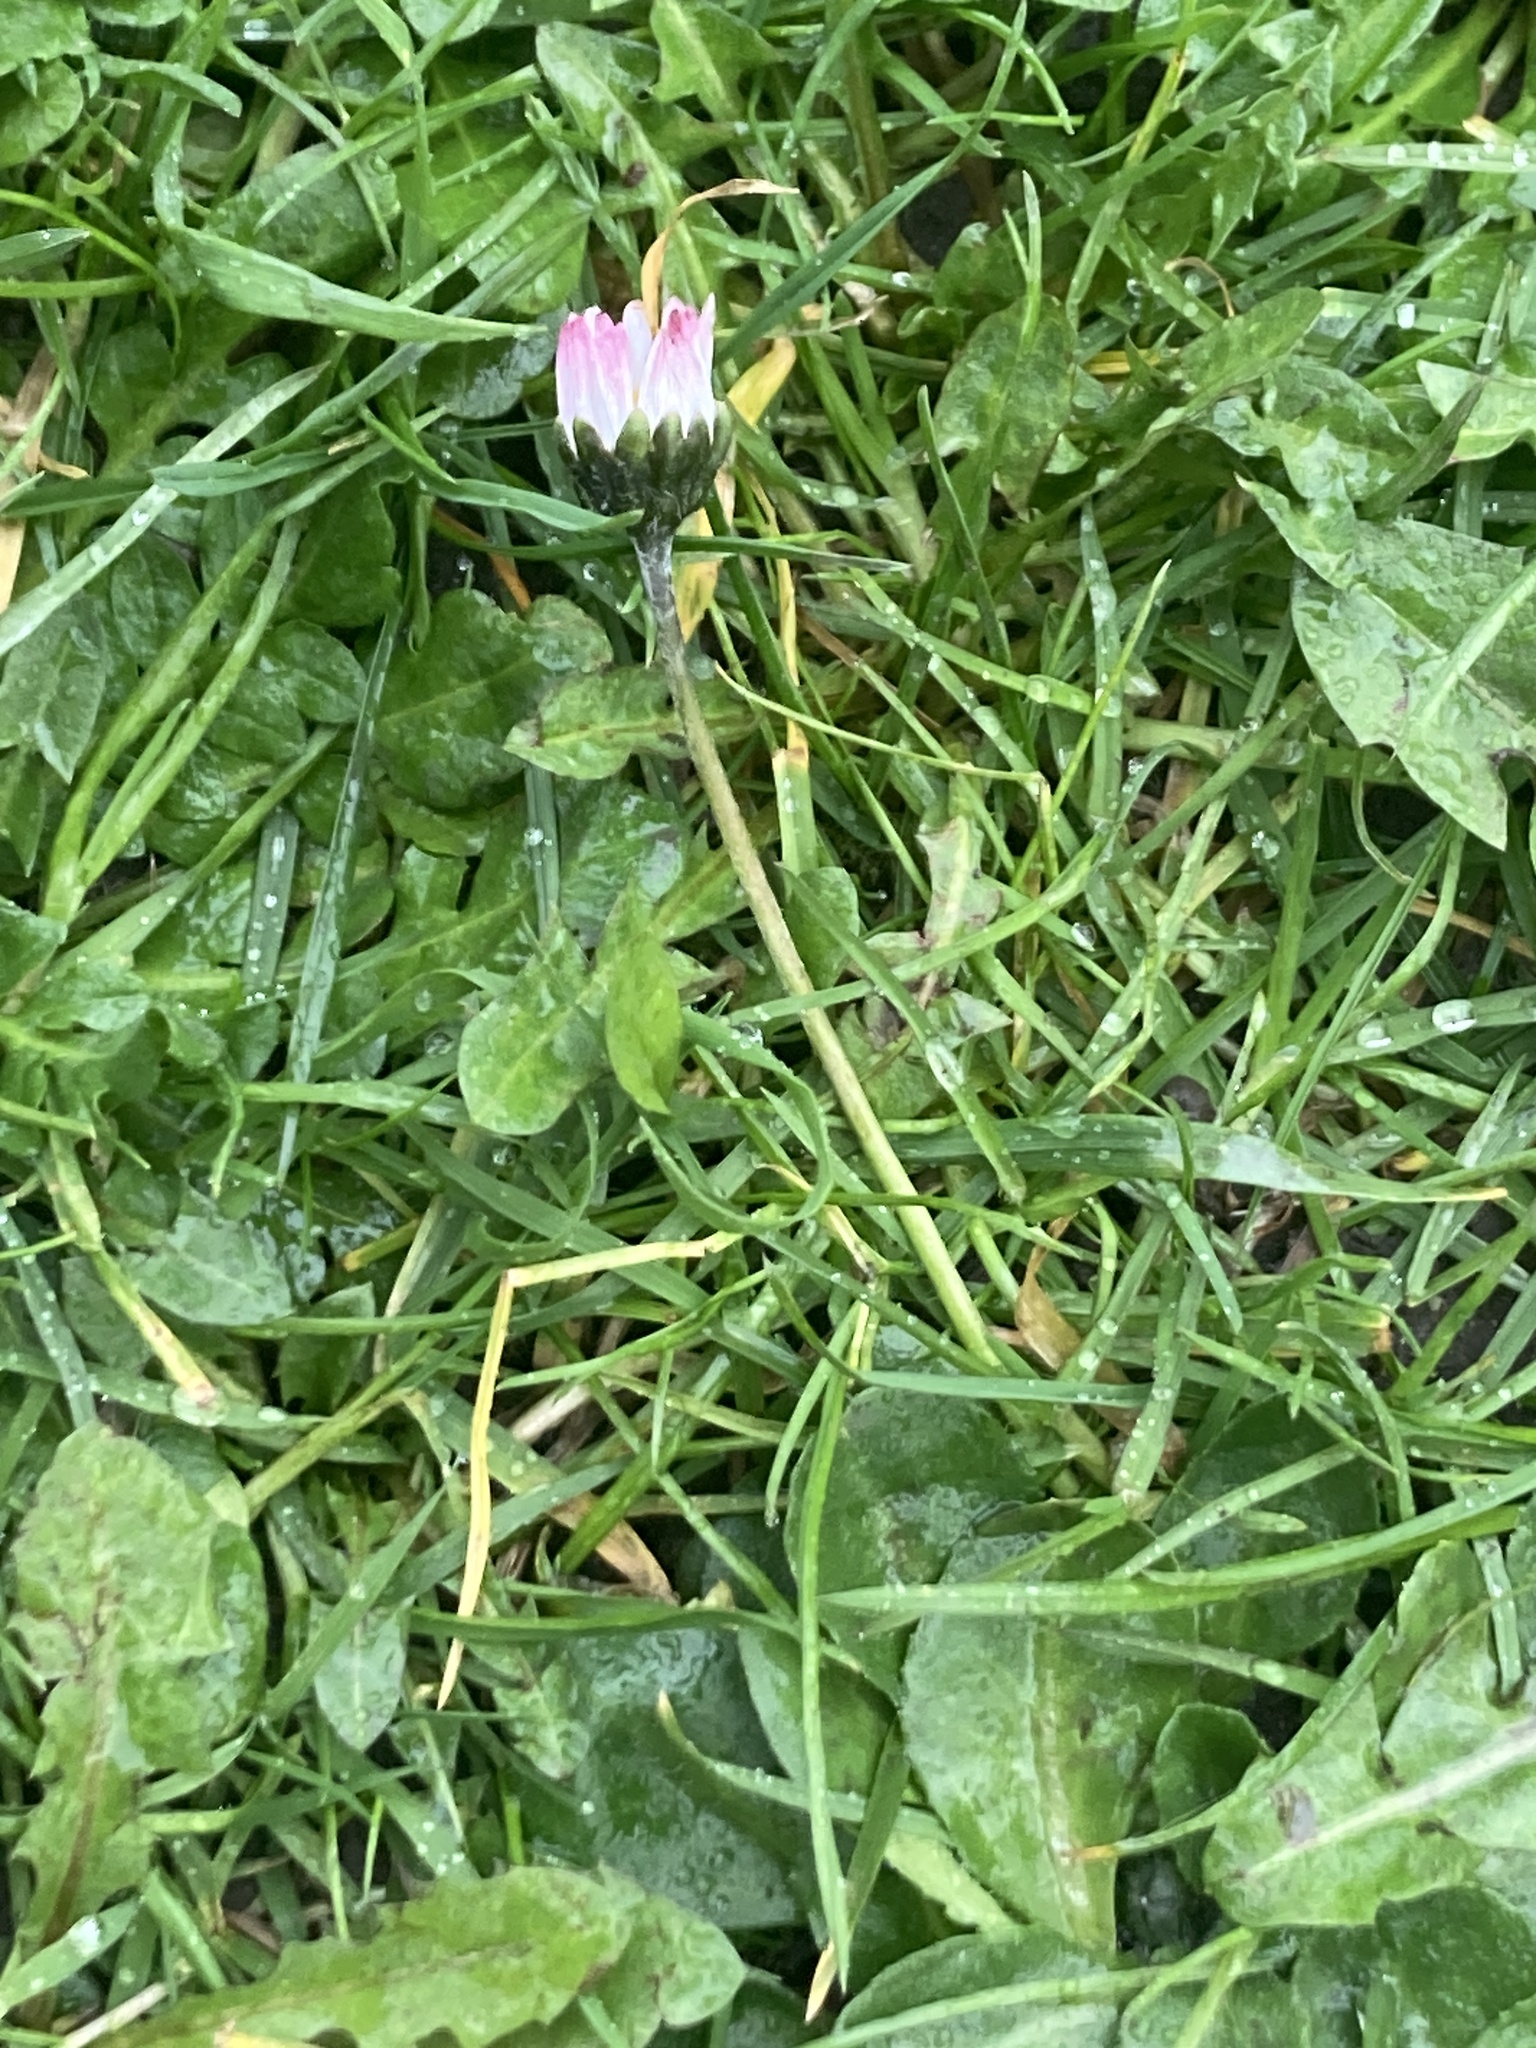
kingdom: Plantae
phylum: Tracheophyta
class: Magnoliopsida
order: Asterales
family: Asteraceae
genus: Bellis
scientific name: Bellis perennis
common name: Lawndaisy
